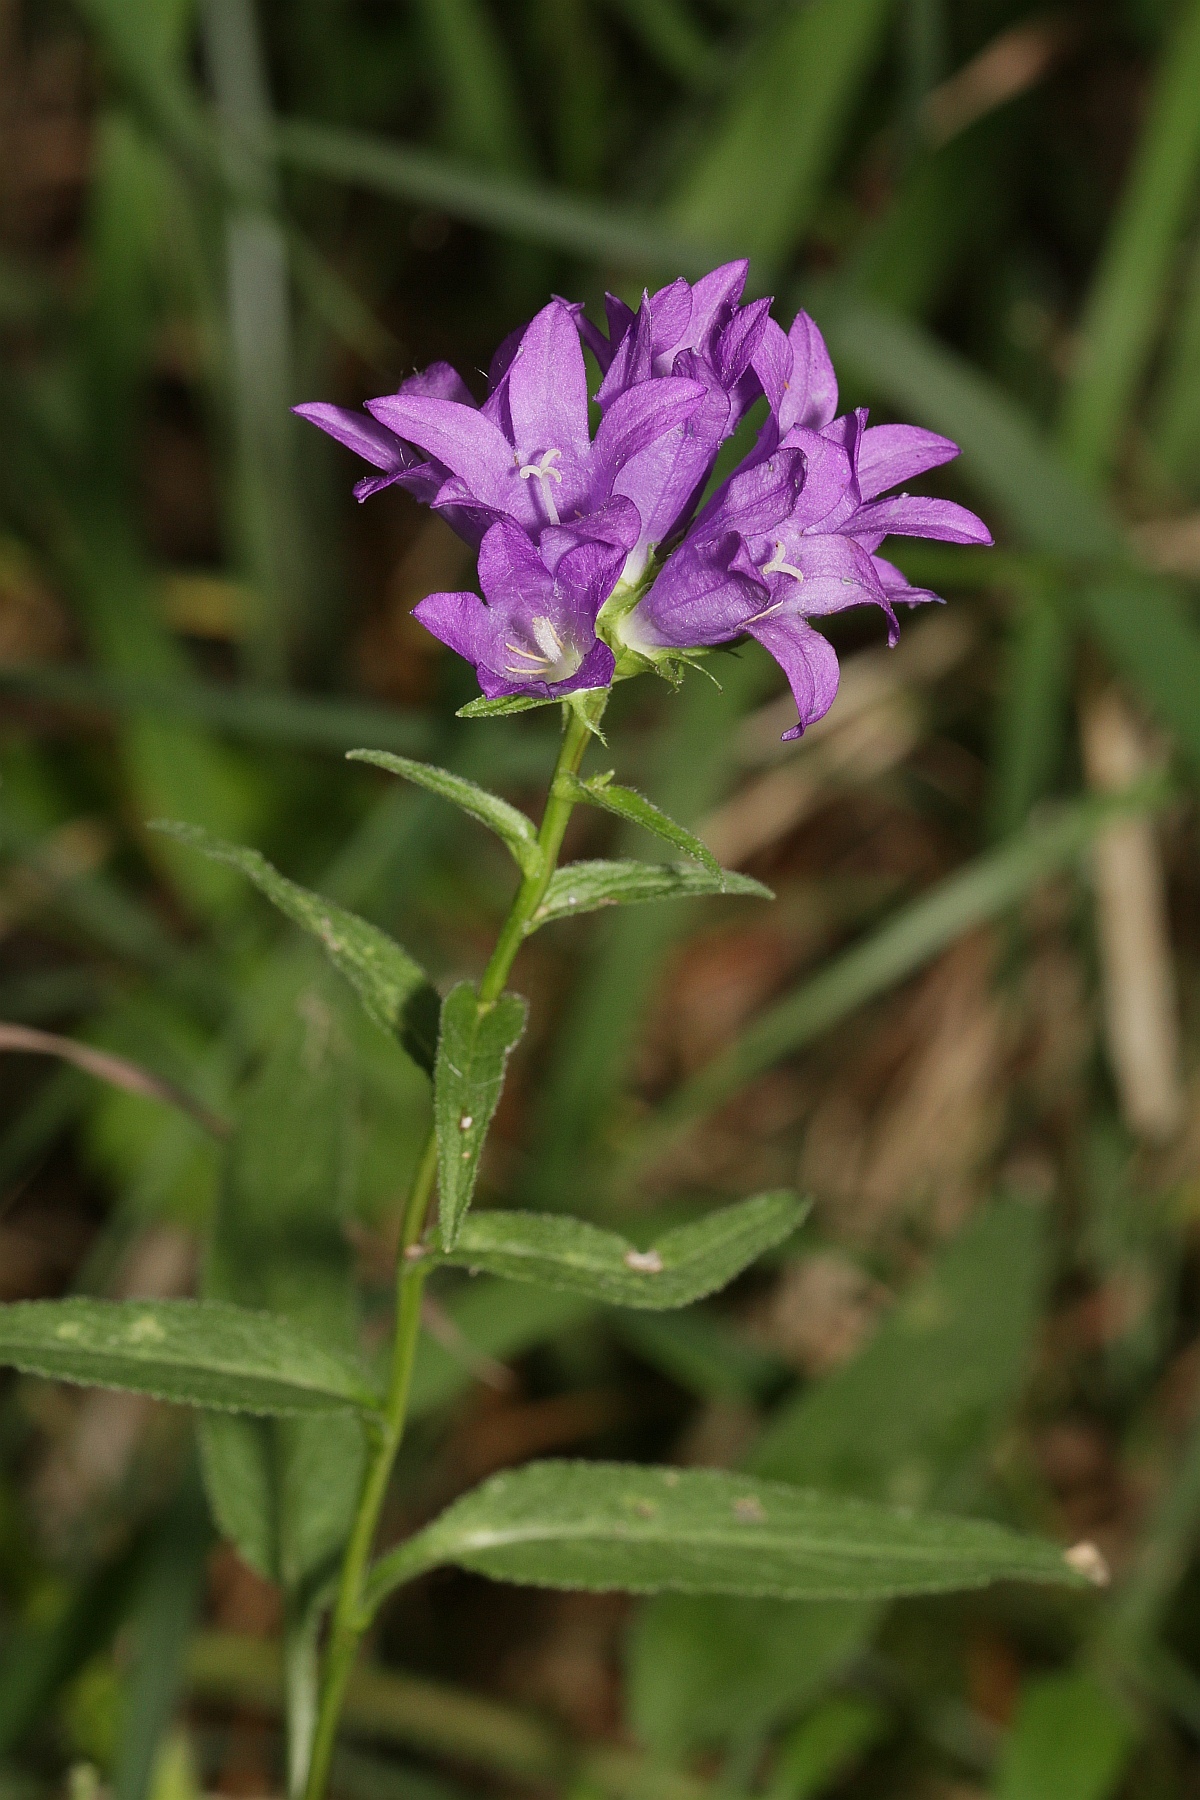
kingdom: Plantae
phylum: Tracheophyta
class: Magnoliopsida
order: Asterales
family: Campanulaceae
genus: Campanula
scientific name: Campanula glomerata
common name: Clustered bellflower
